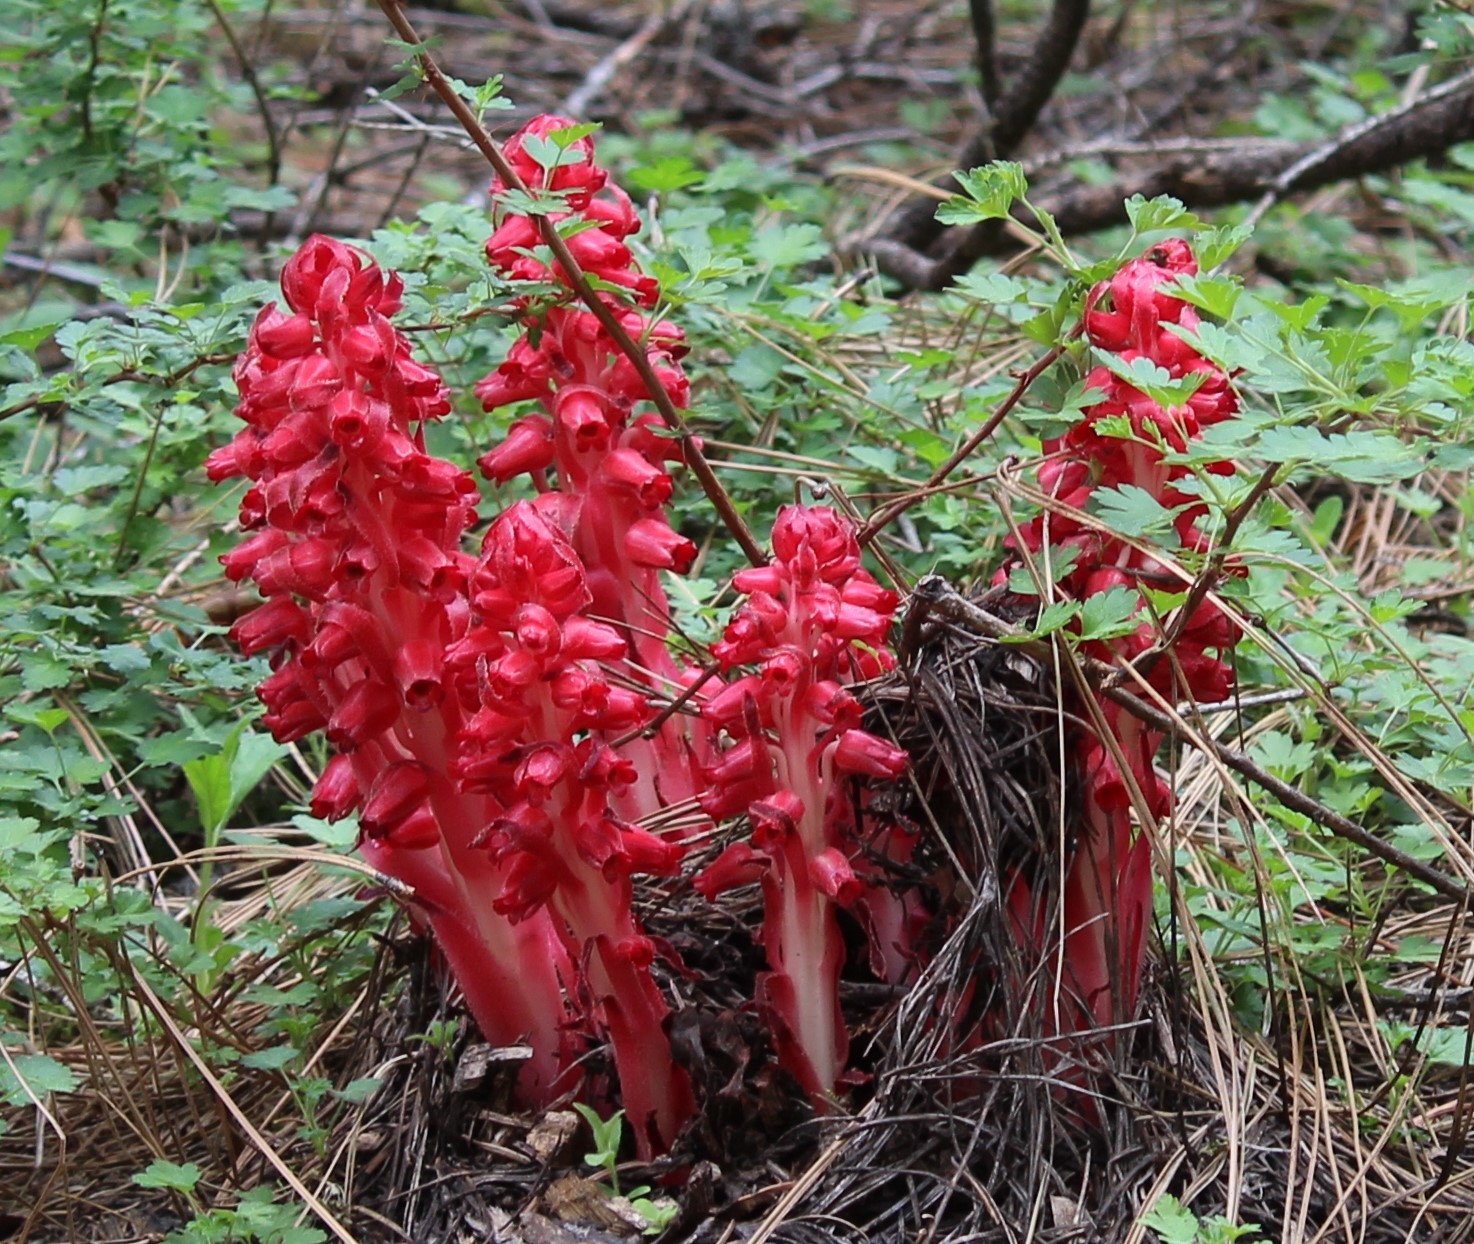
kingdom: Plantae
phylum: Tracheophyta
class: Magnoliopsida
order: Ericales
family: Ericaceae
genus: Sarcodes
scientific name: Sarcodes sanguinea
